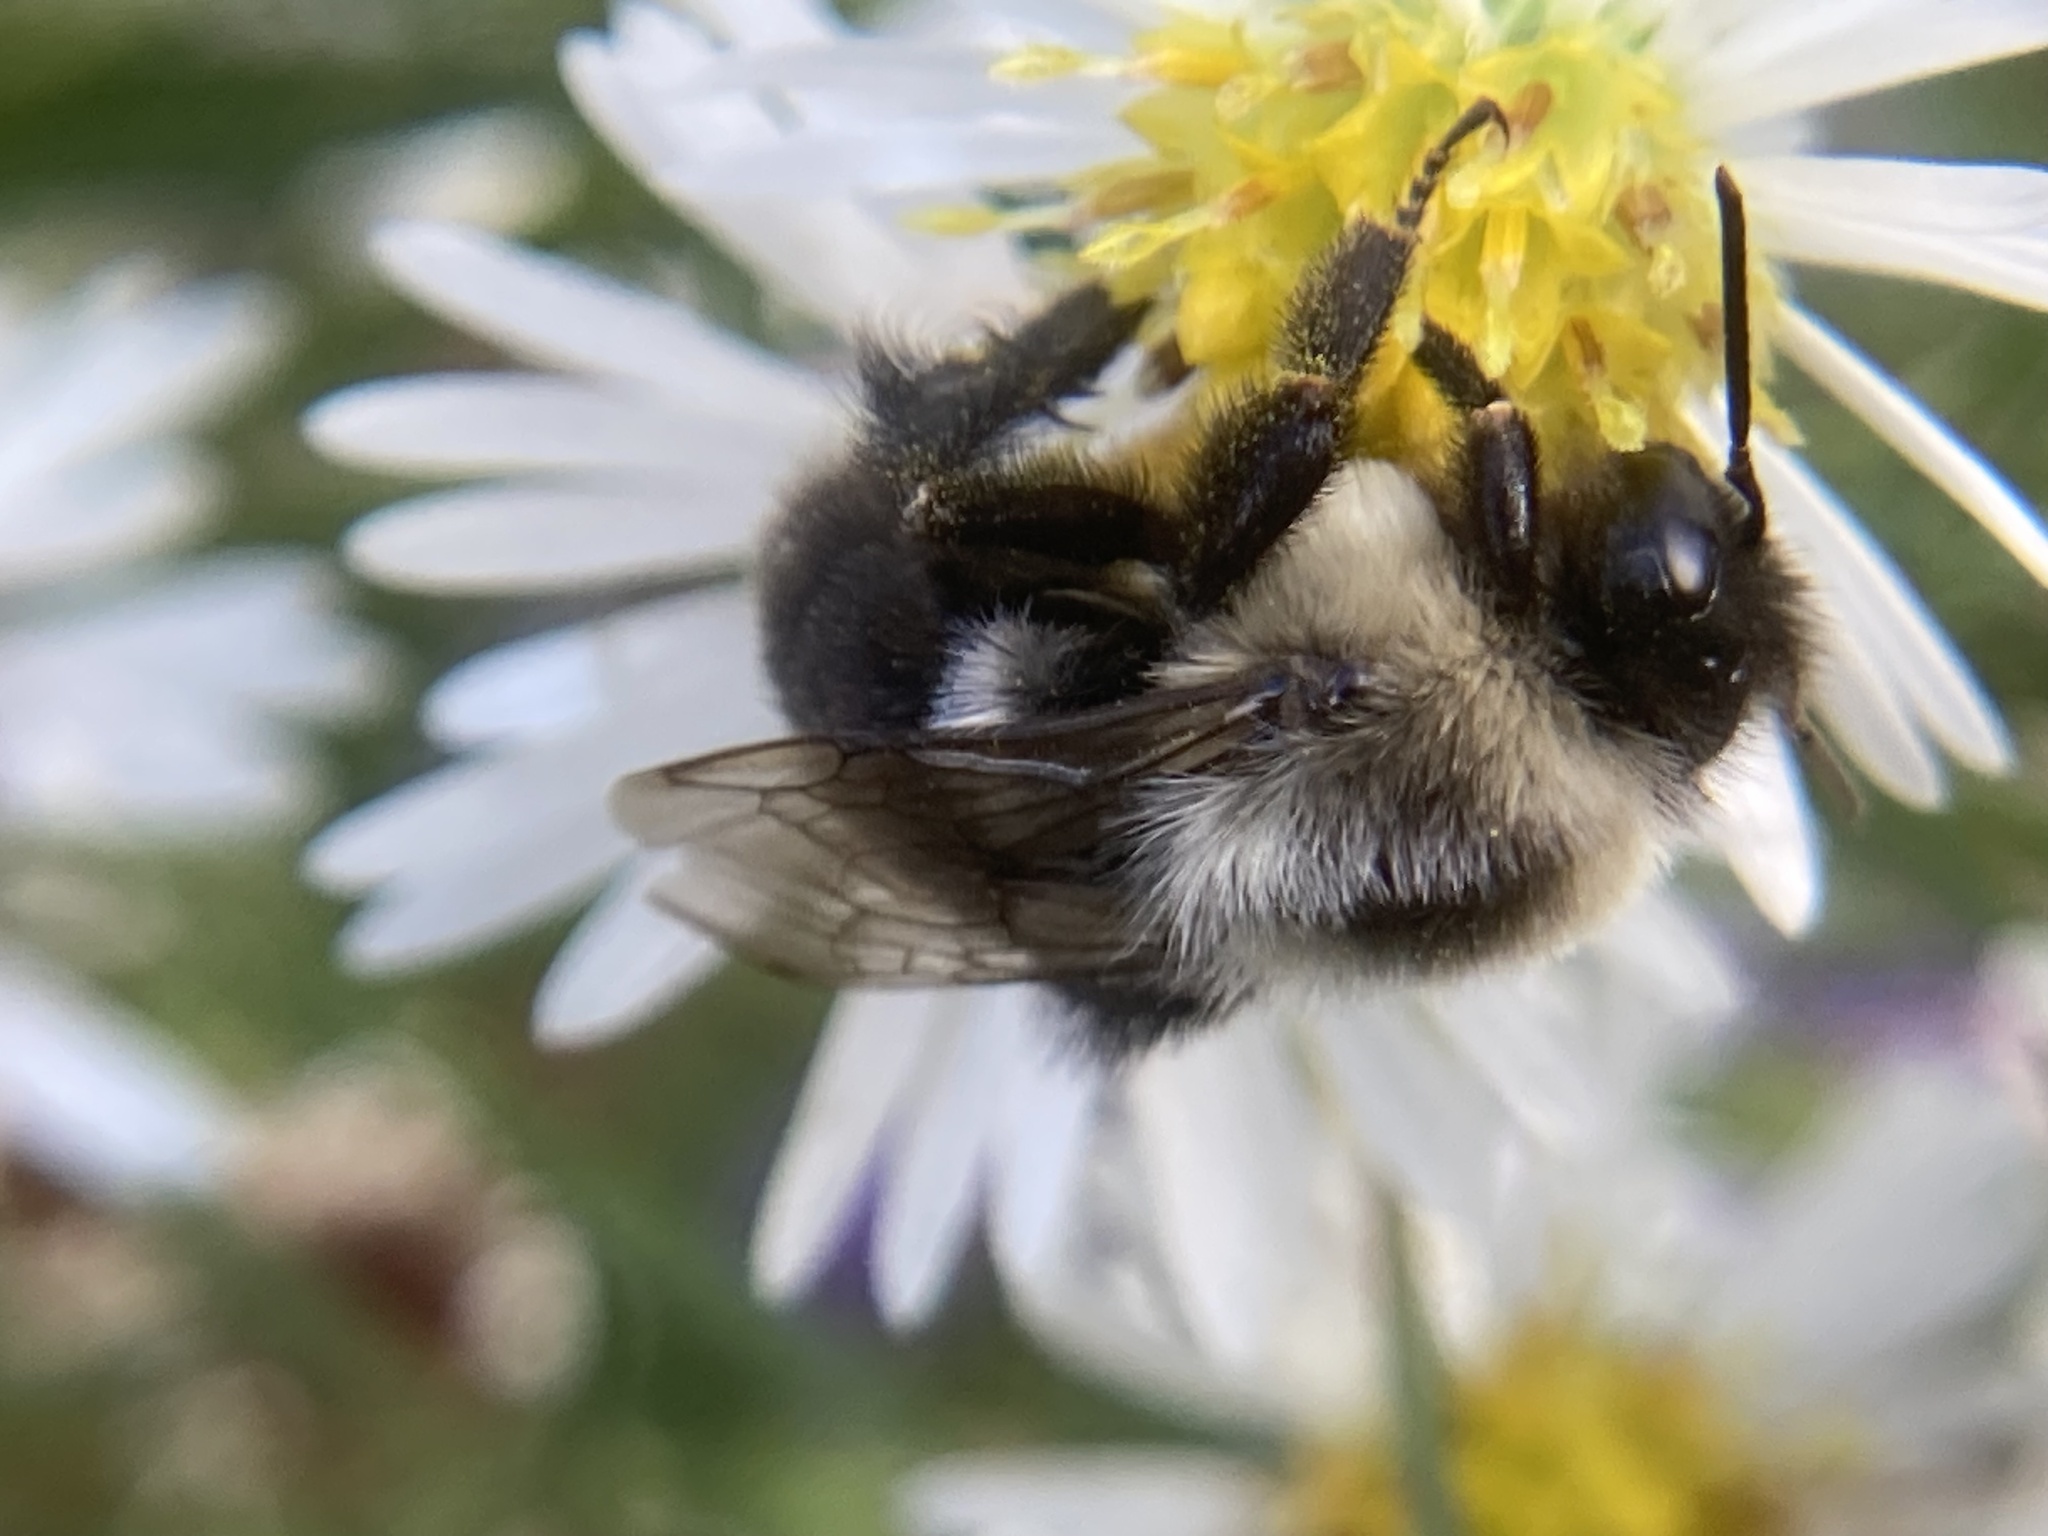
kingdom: Animalia
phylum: Arthropoda
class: Insecta
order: Hymenoptera
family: Apidae
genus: Bombus
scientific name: Bombus impatiens
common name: Common eastern bumble bee
